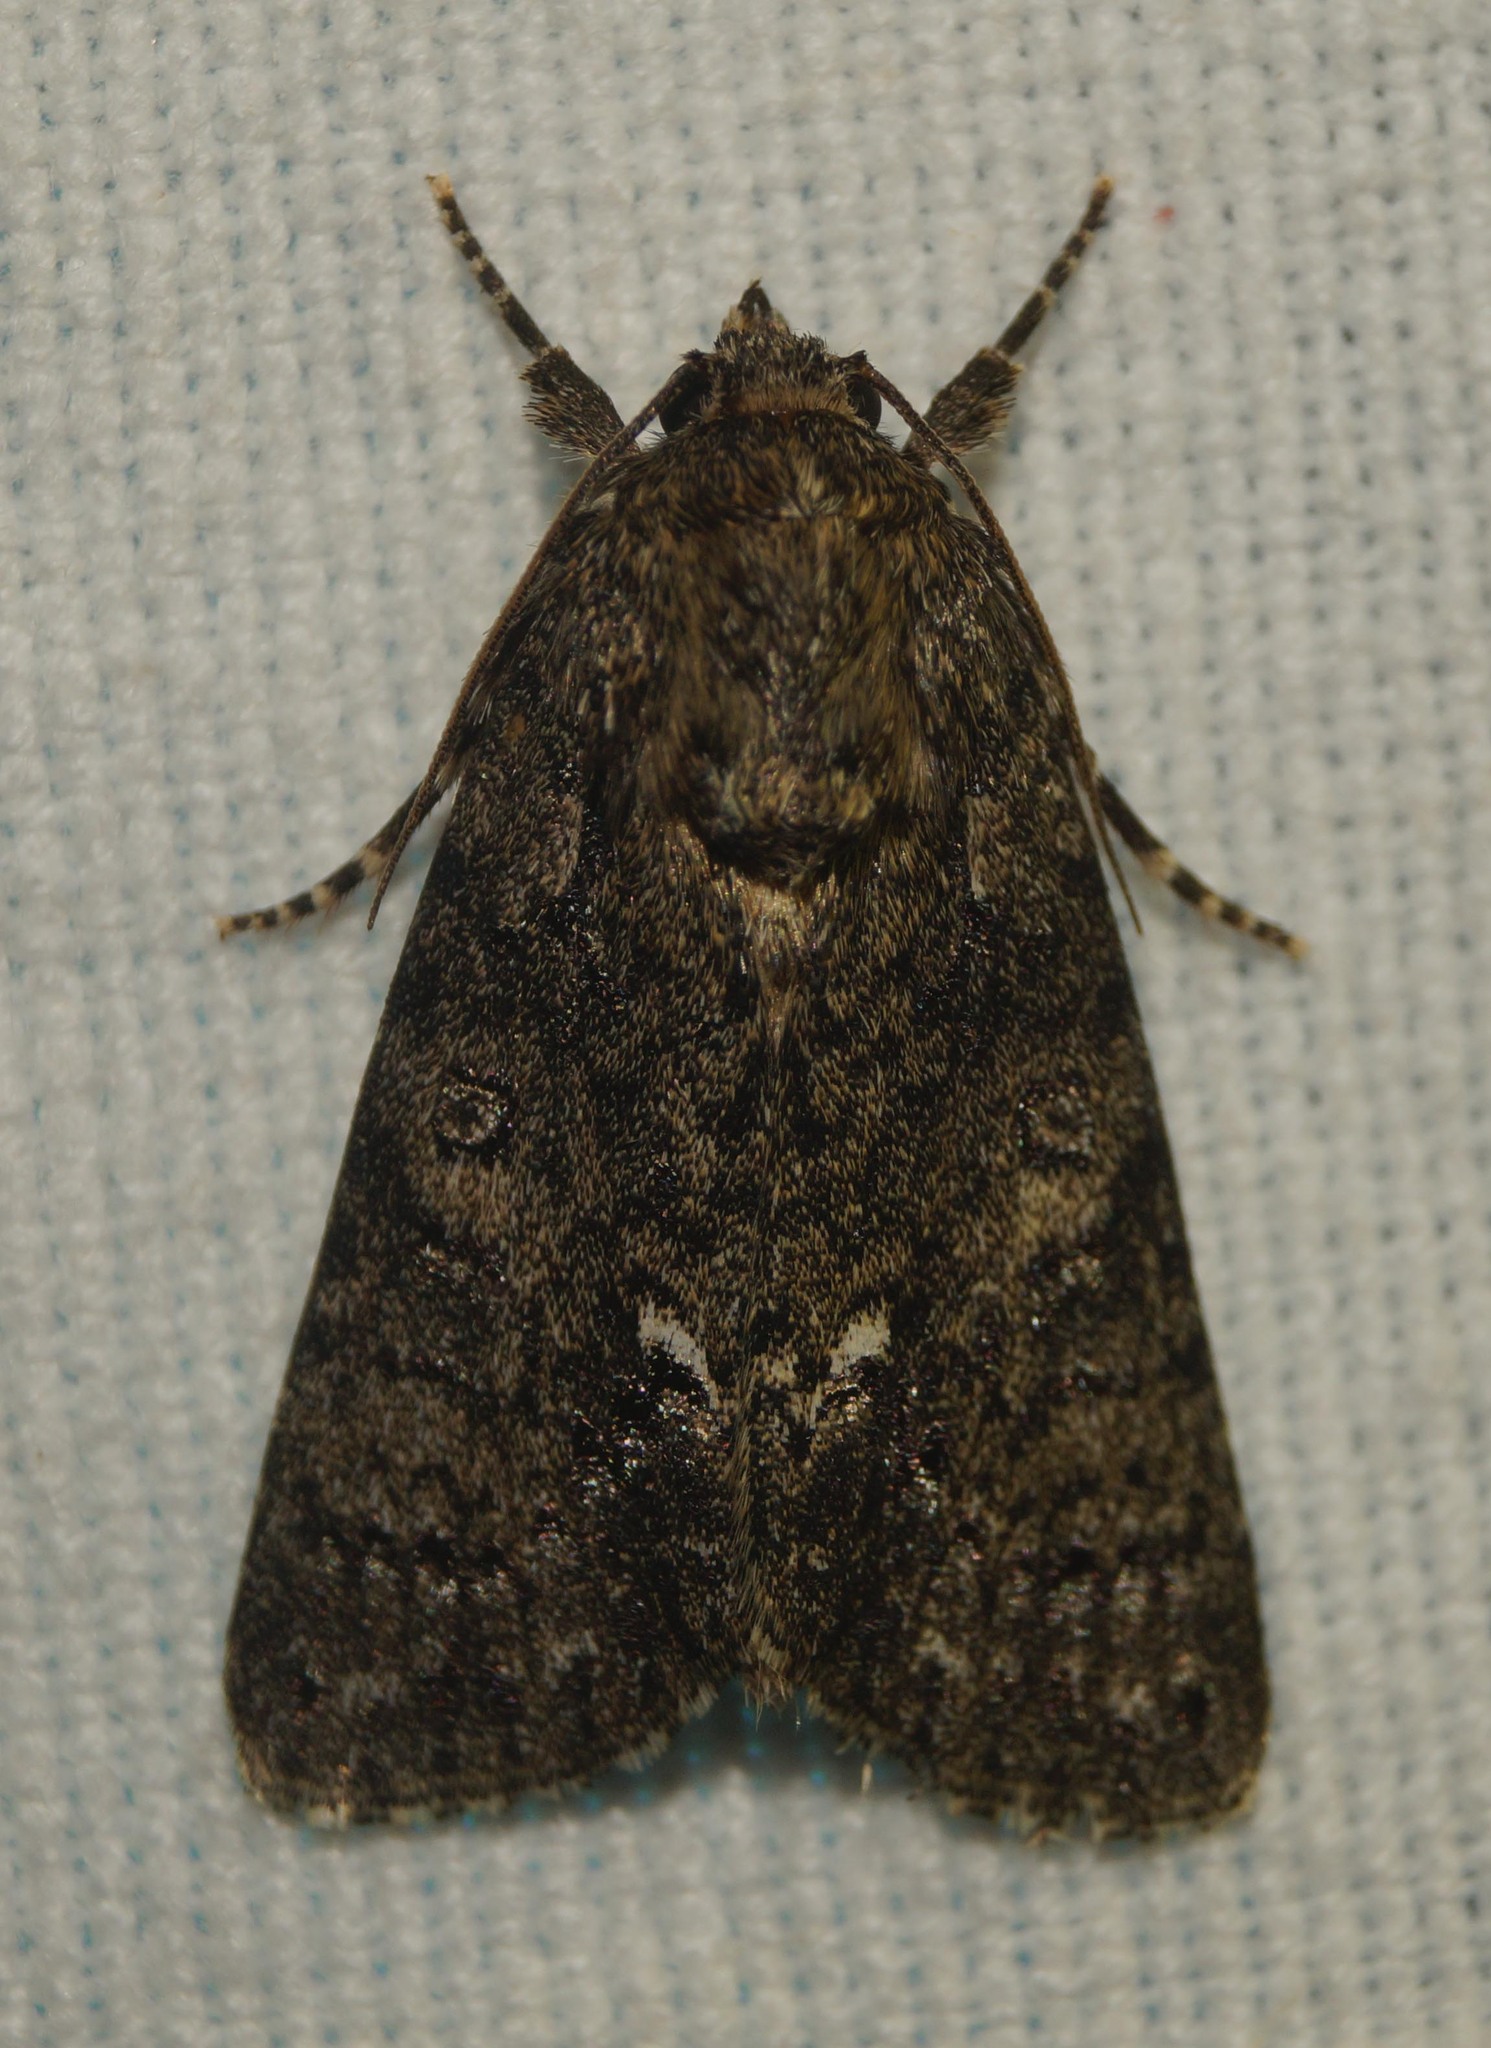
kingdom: Animalia
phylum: Arthropoda
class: Insecta
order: Lepidoptera
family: Noctuidae
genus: Acronicta
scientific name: Acronicta rumicis
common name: Knot grass
